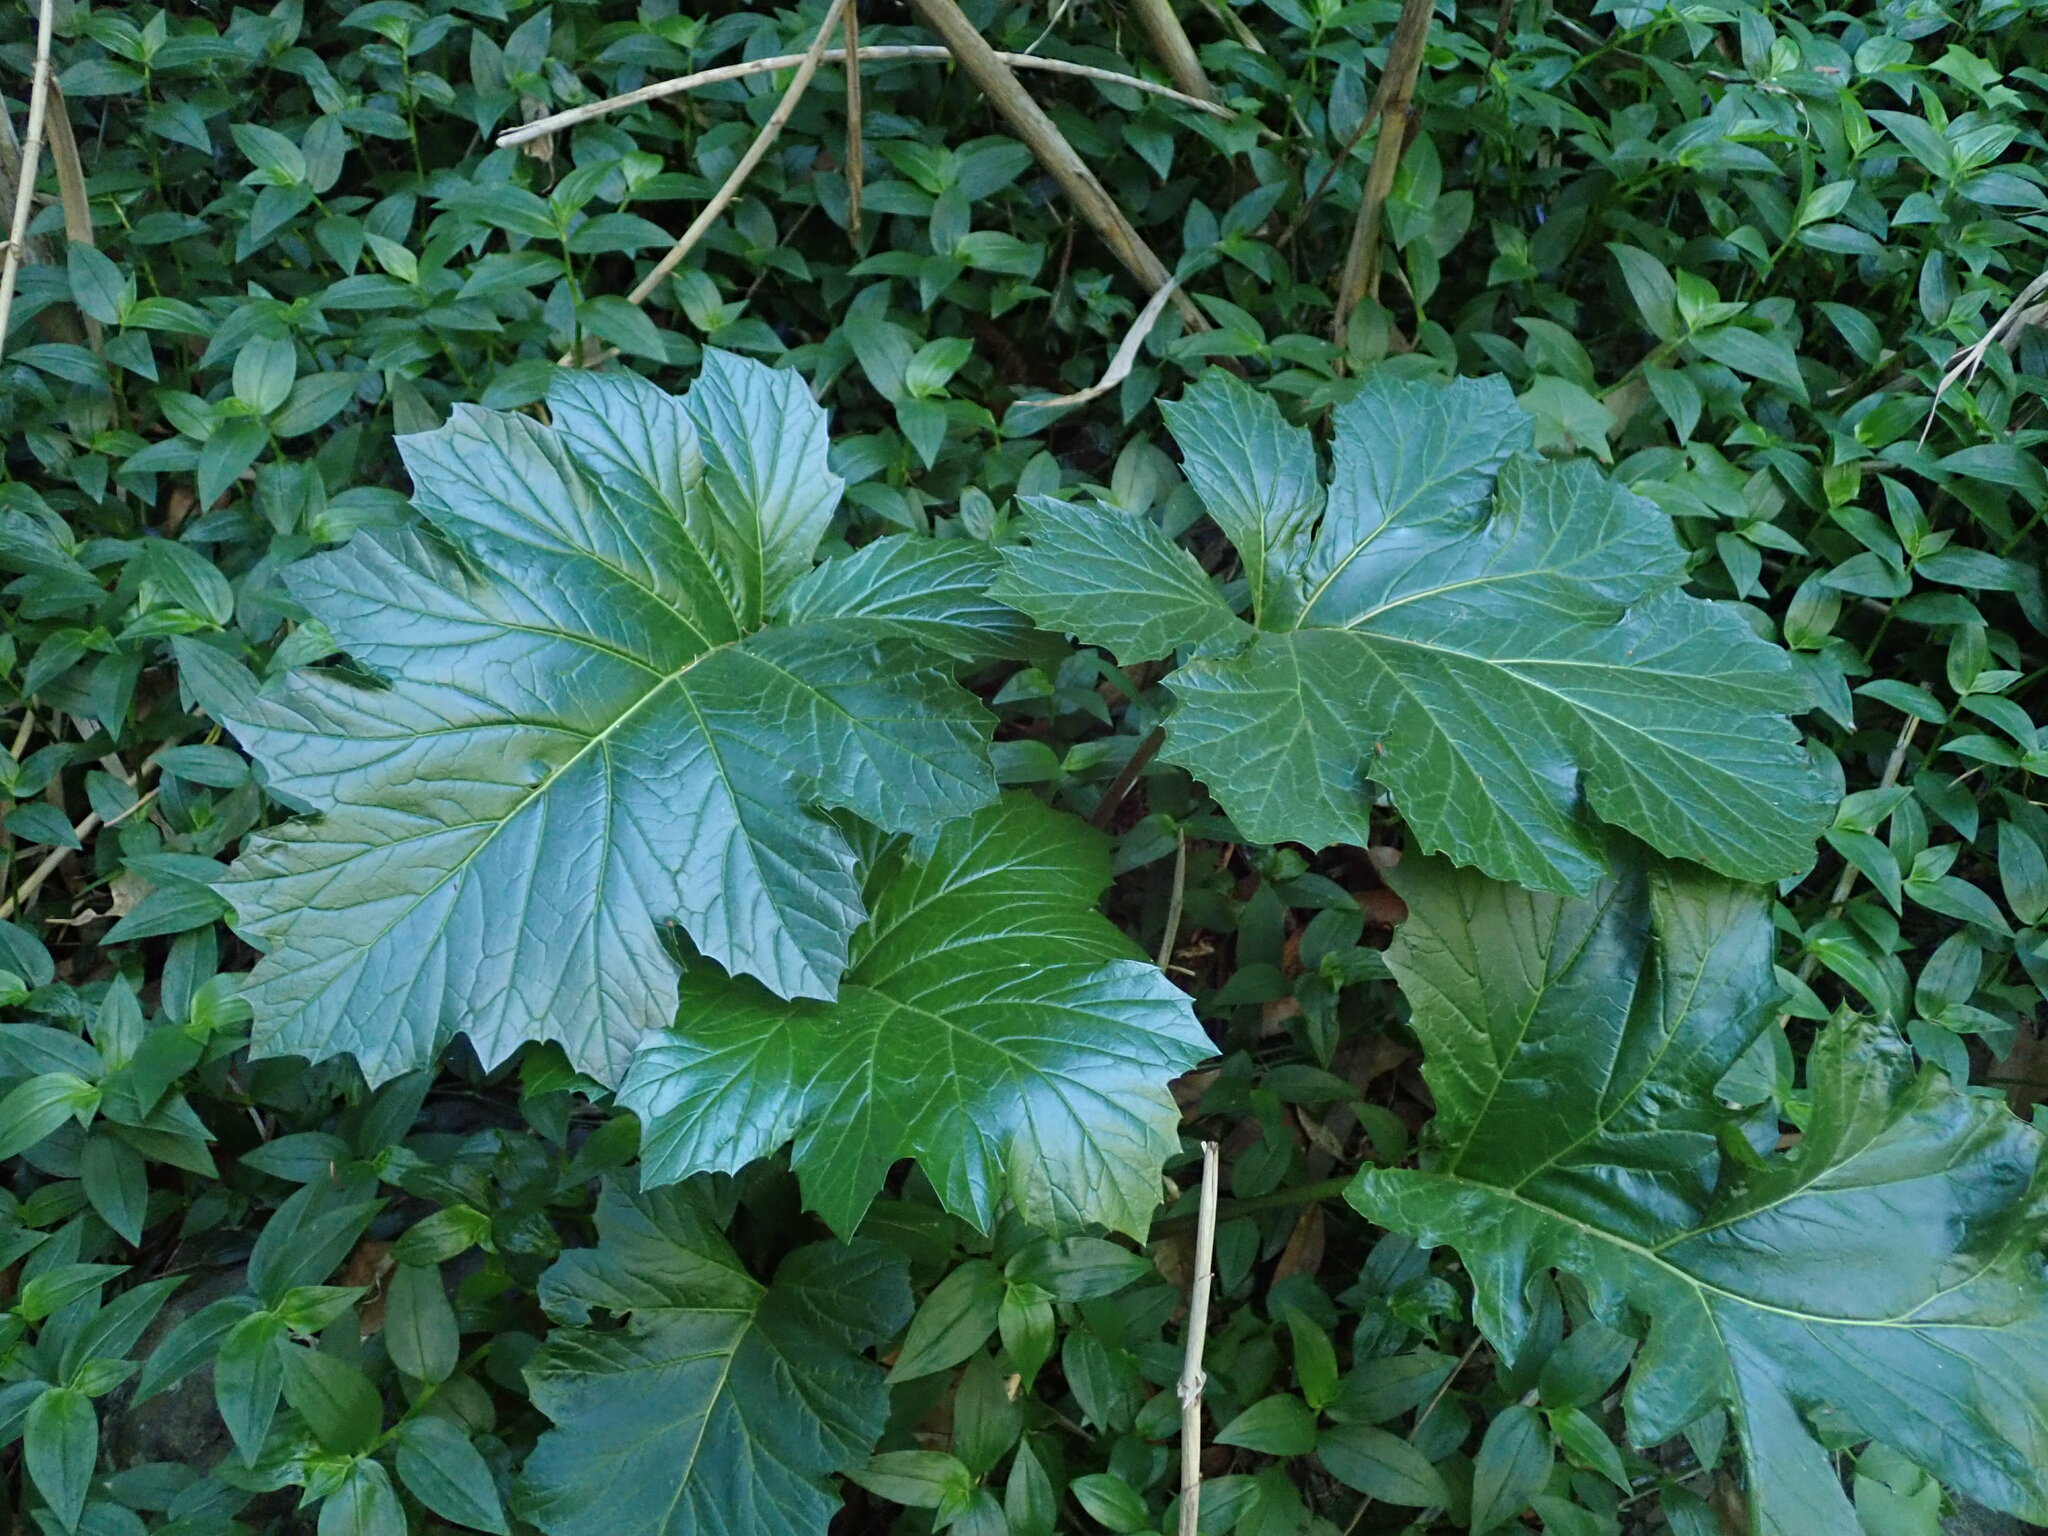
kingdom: Plantae
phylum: Tracheophyta
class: Magnoliopsida
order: Lamiales
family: Acanthaceae
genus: Acanthus
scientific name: Acanthus mollis
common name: Bear's-breech
